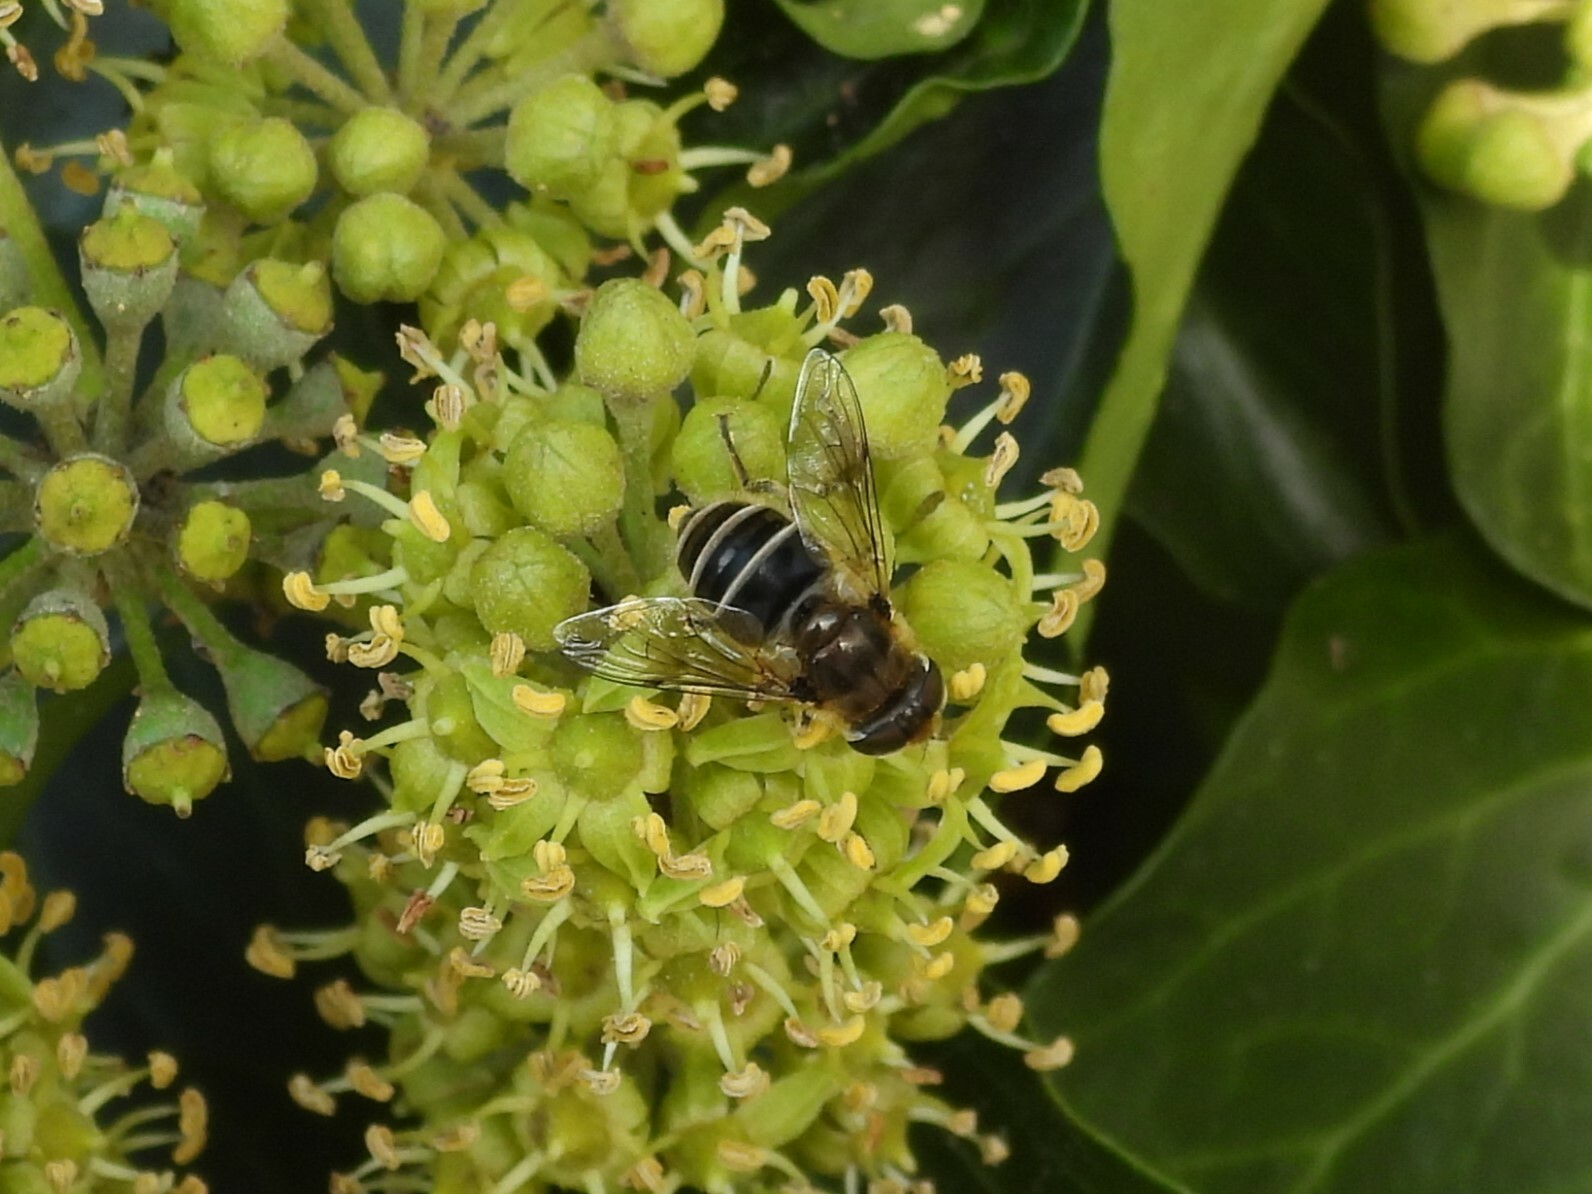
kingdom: Animalia
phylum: Arthropoda
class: Insecta
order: Diptera
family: Syrphidae
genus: Eristalis
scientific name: Eristalis arbustorum
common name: Hover fly
